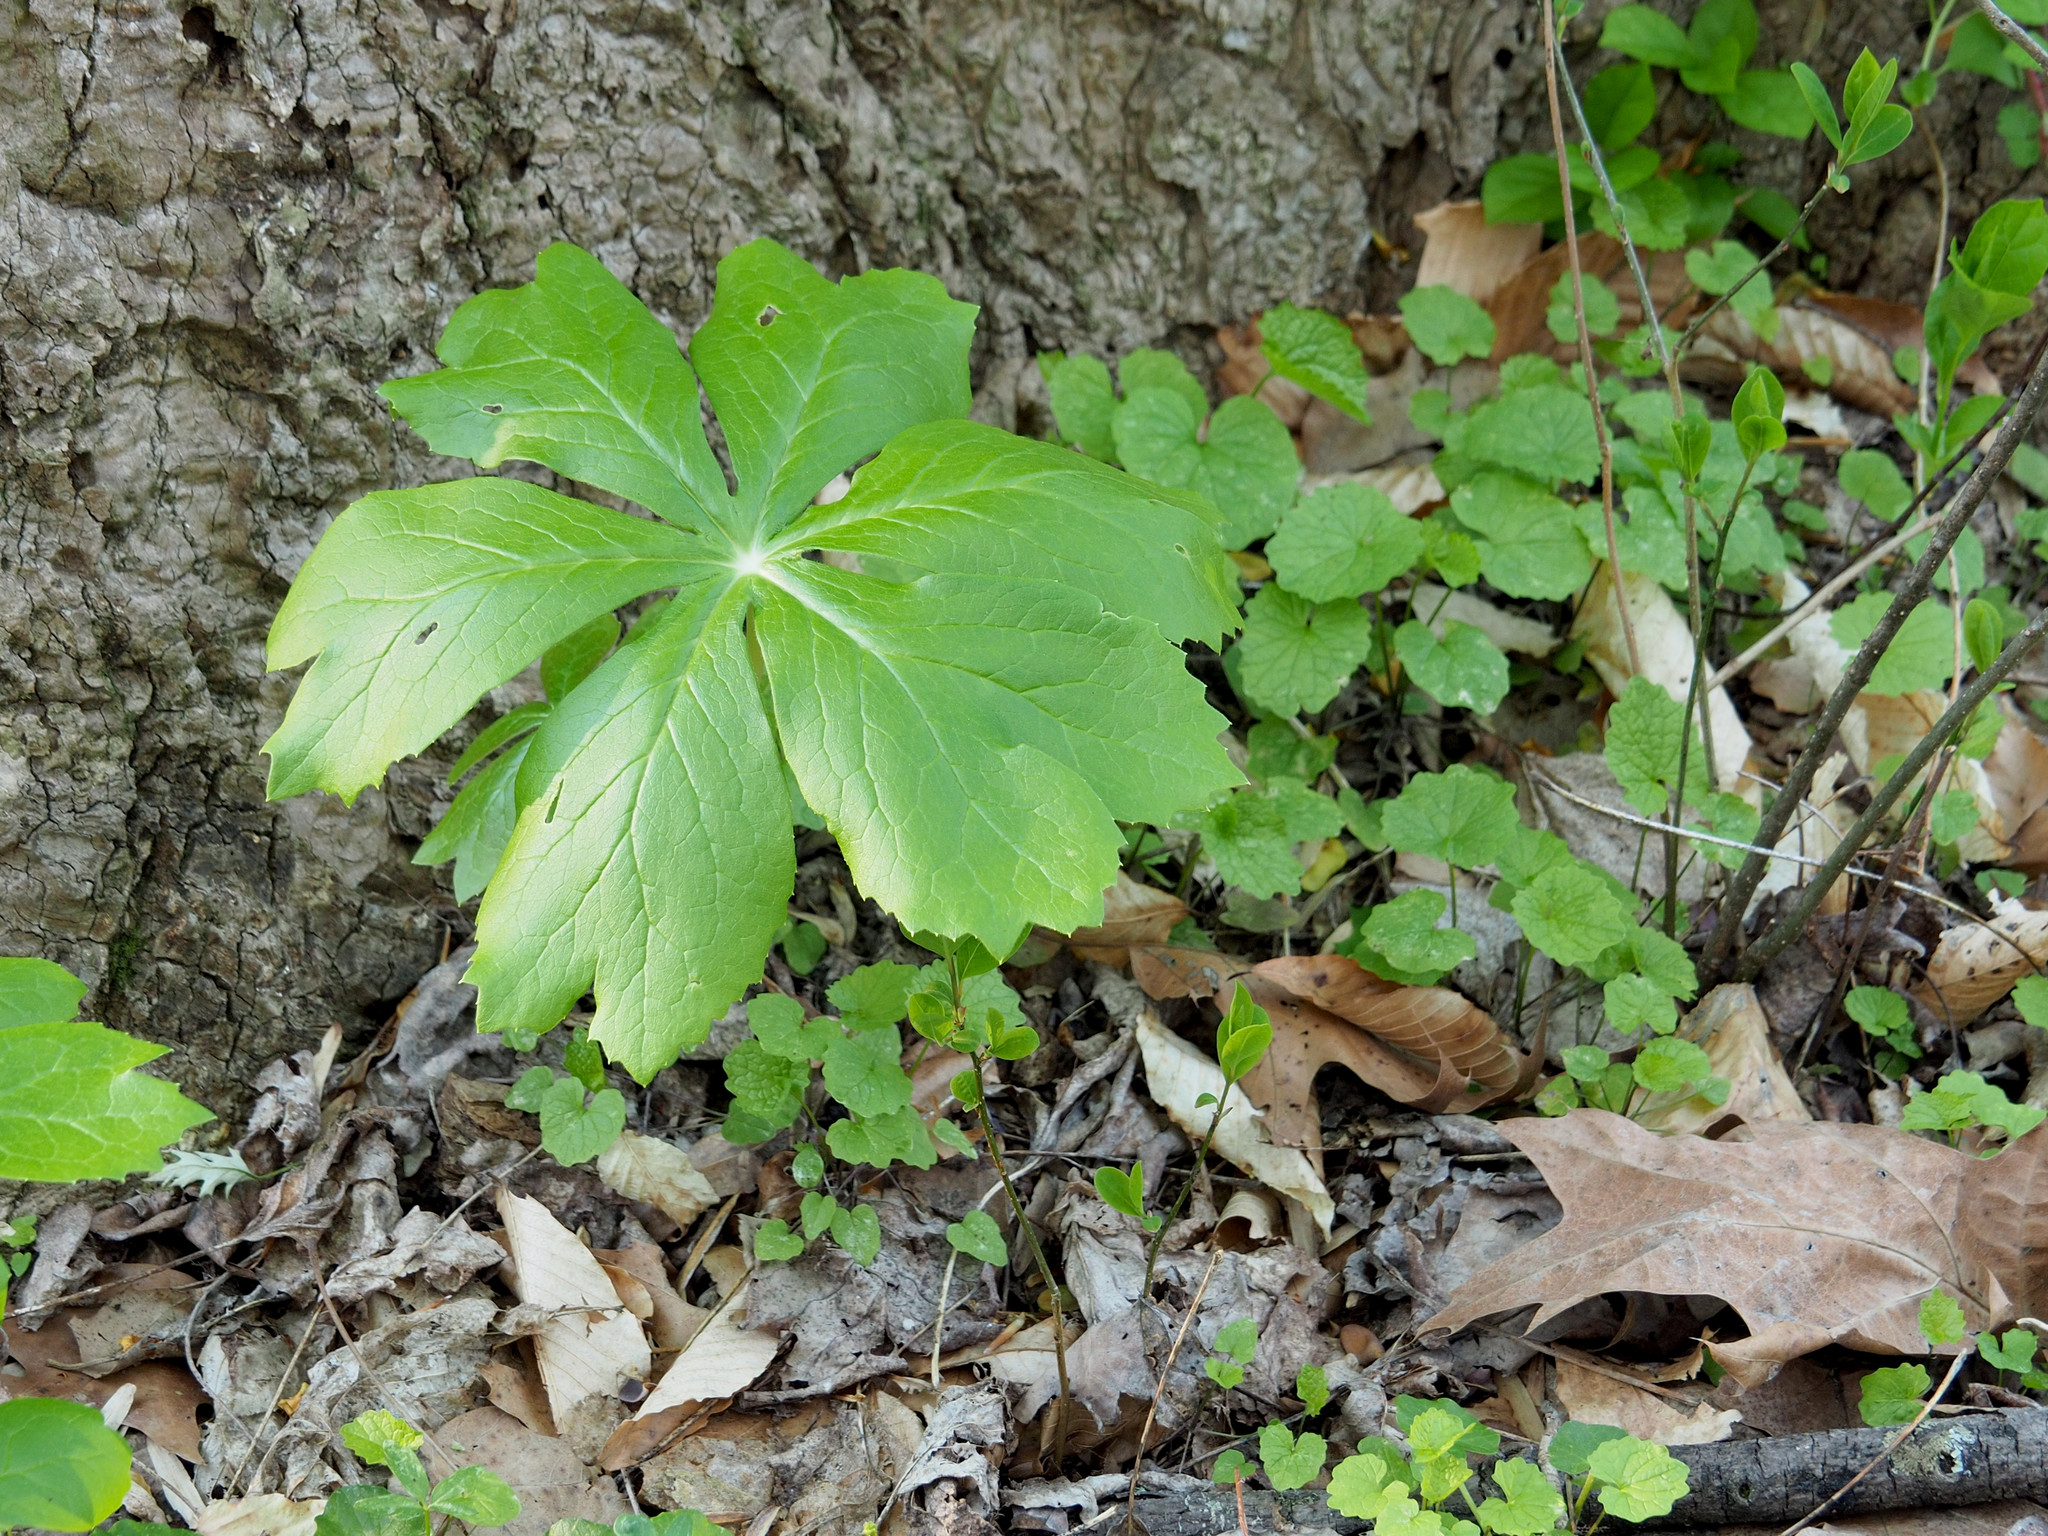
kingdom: Plantae
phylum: Tracheophyta
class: Magnoliopsida
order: Ranunculales
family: Berberidaceae
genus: Podophyllum
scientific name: Podophyllum peltatum
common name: Wild mandrake
